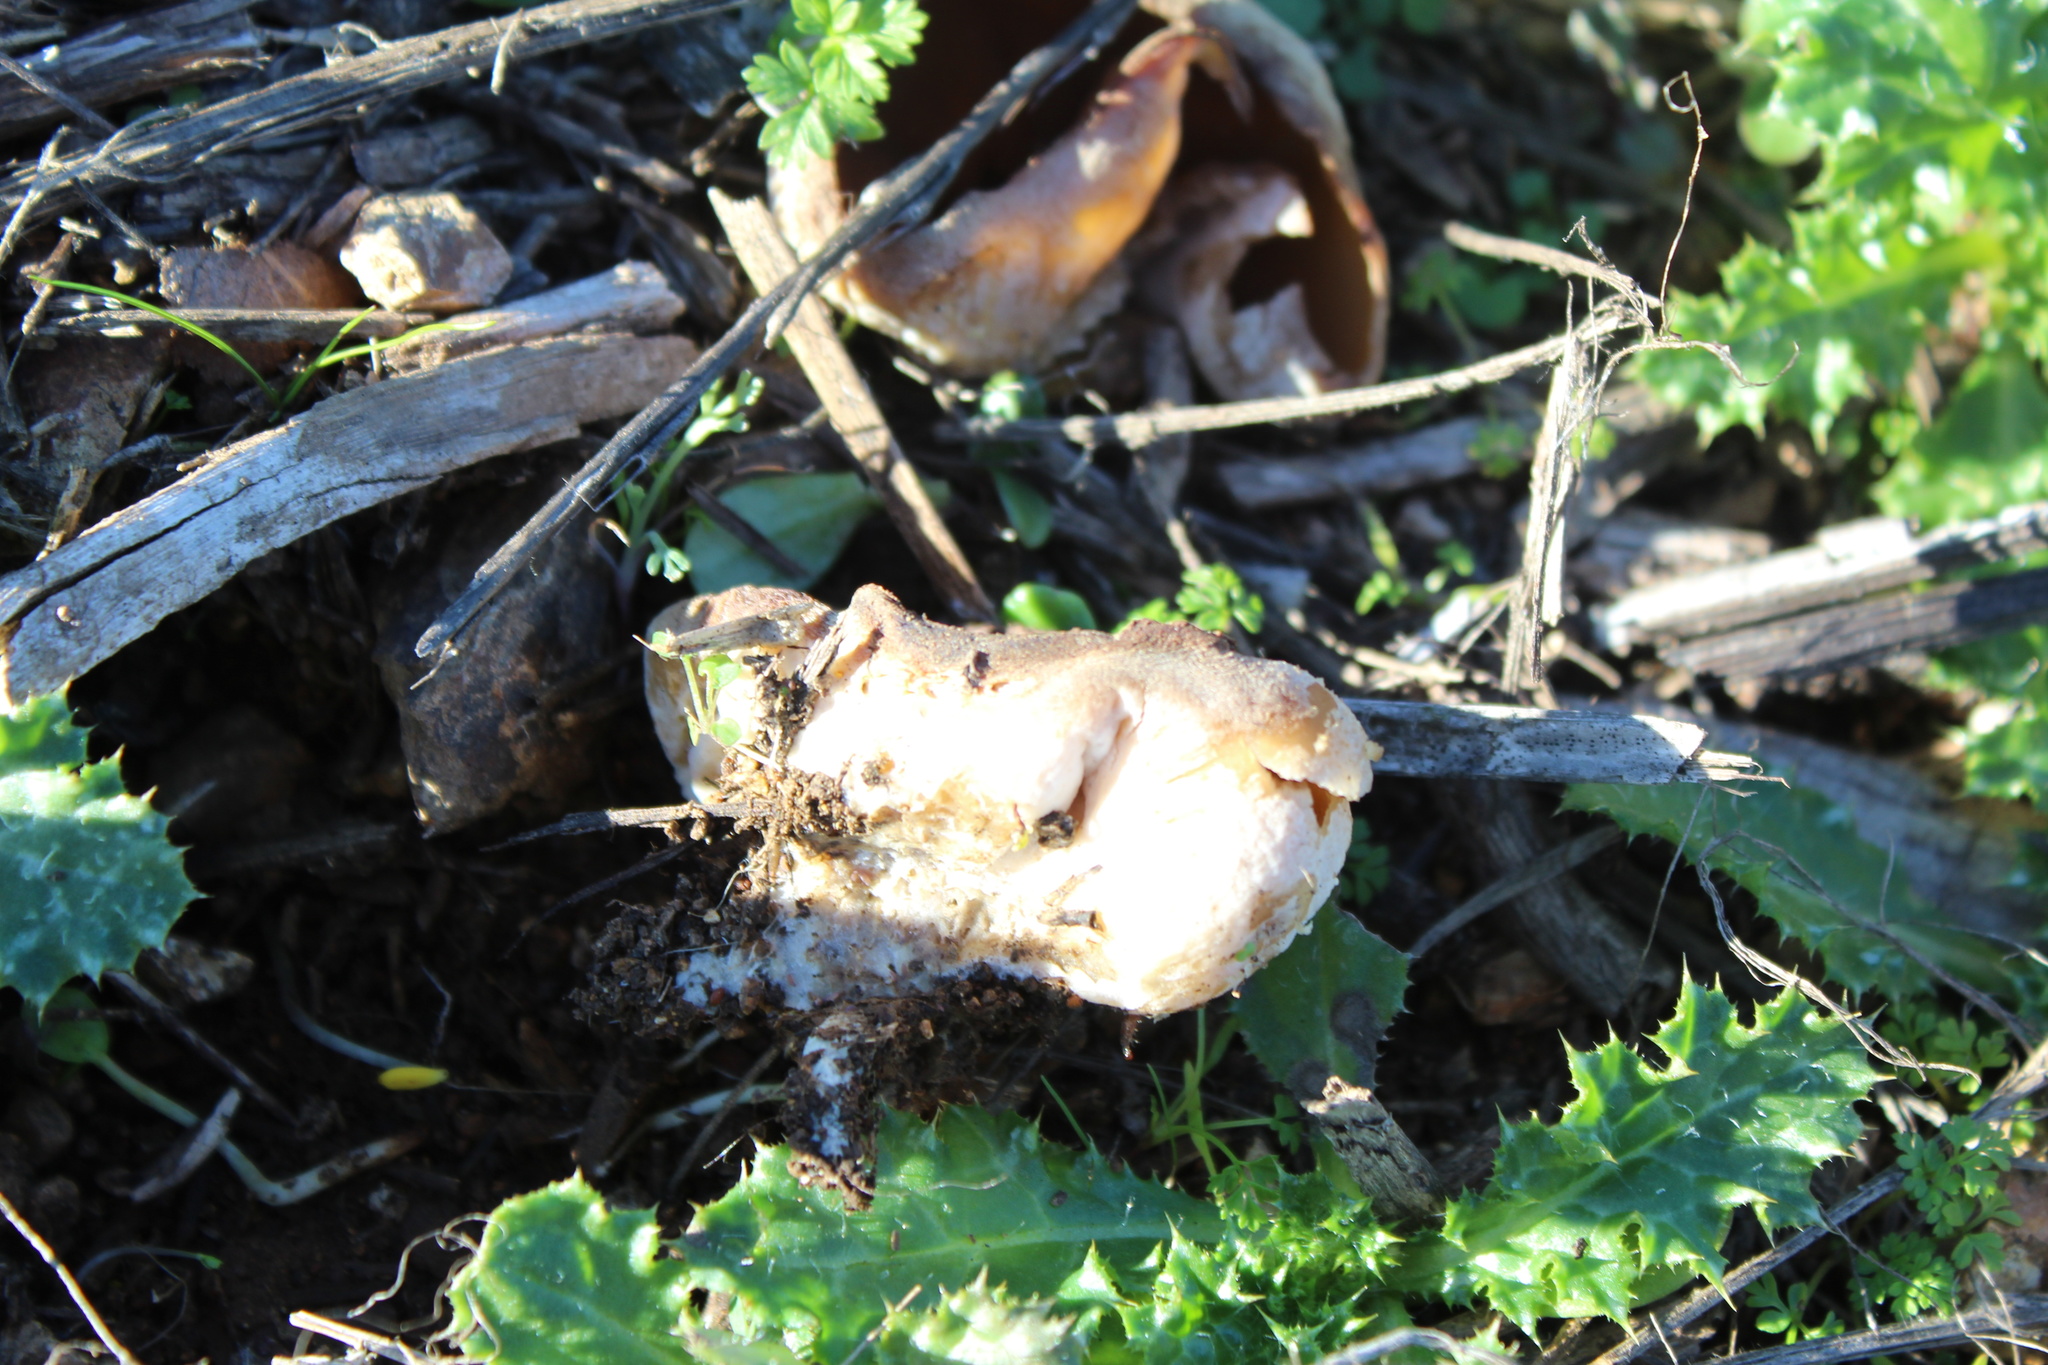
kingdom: Fungi
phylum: Ascomycota
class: Pezizomycetes
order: Pezizales
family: Pezizaceae
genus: Peziza
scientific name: Peziza varia
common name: Layered cup
